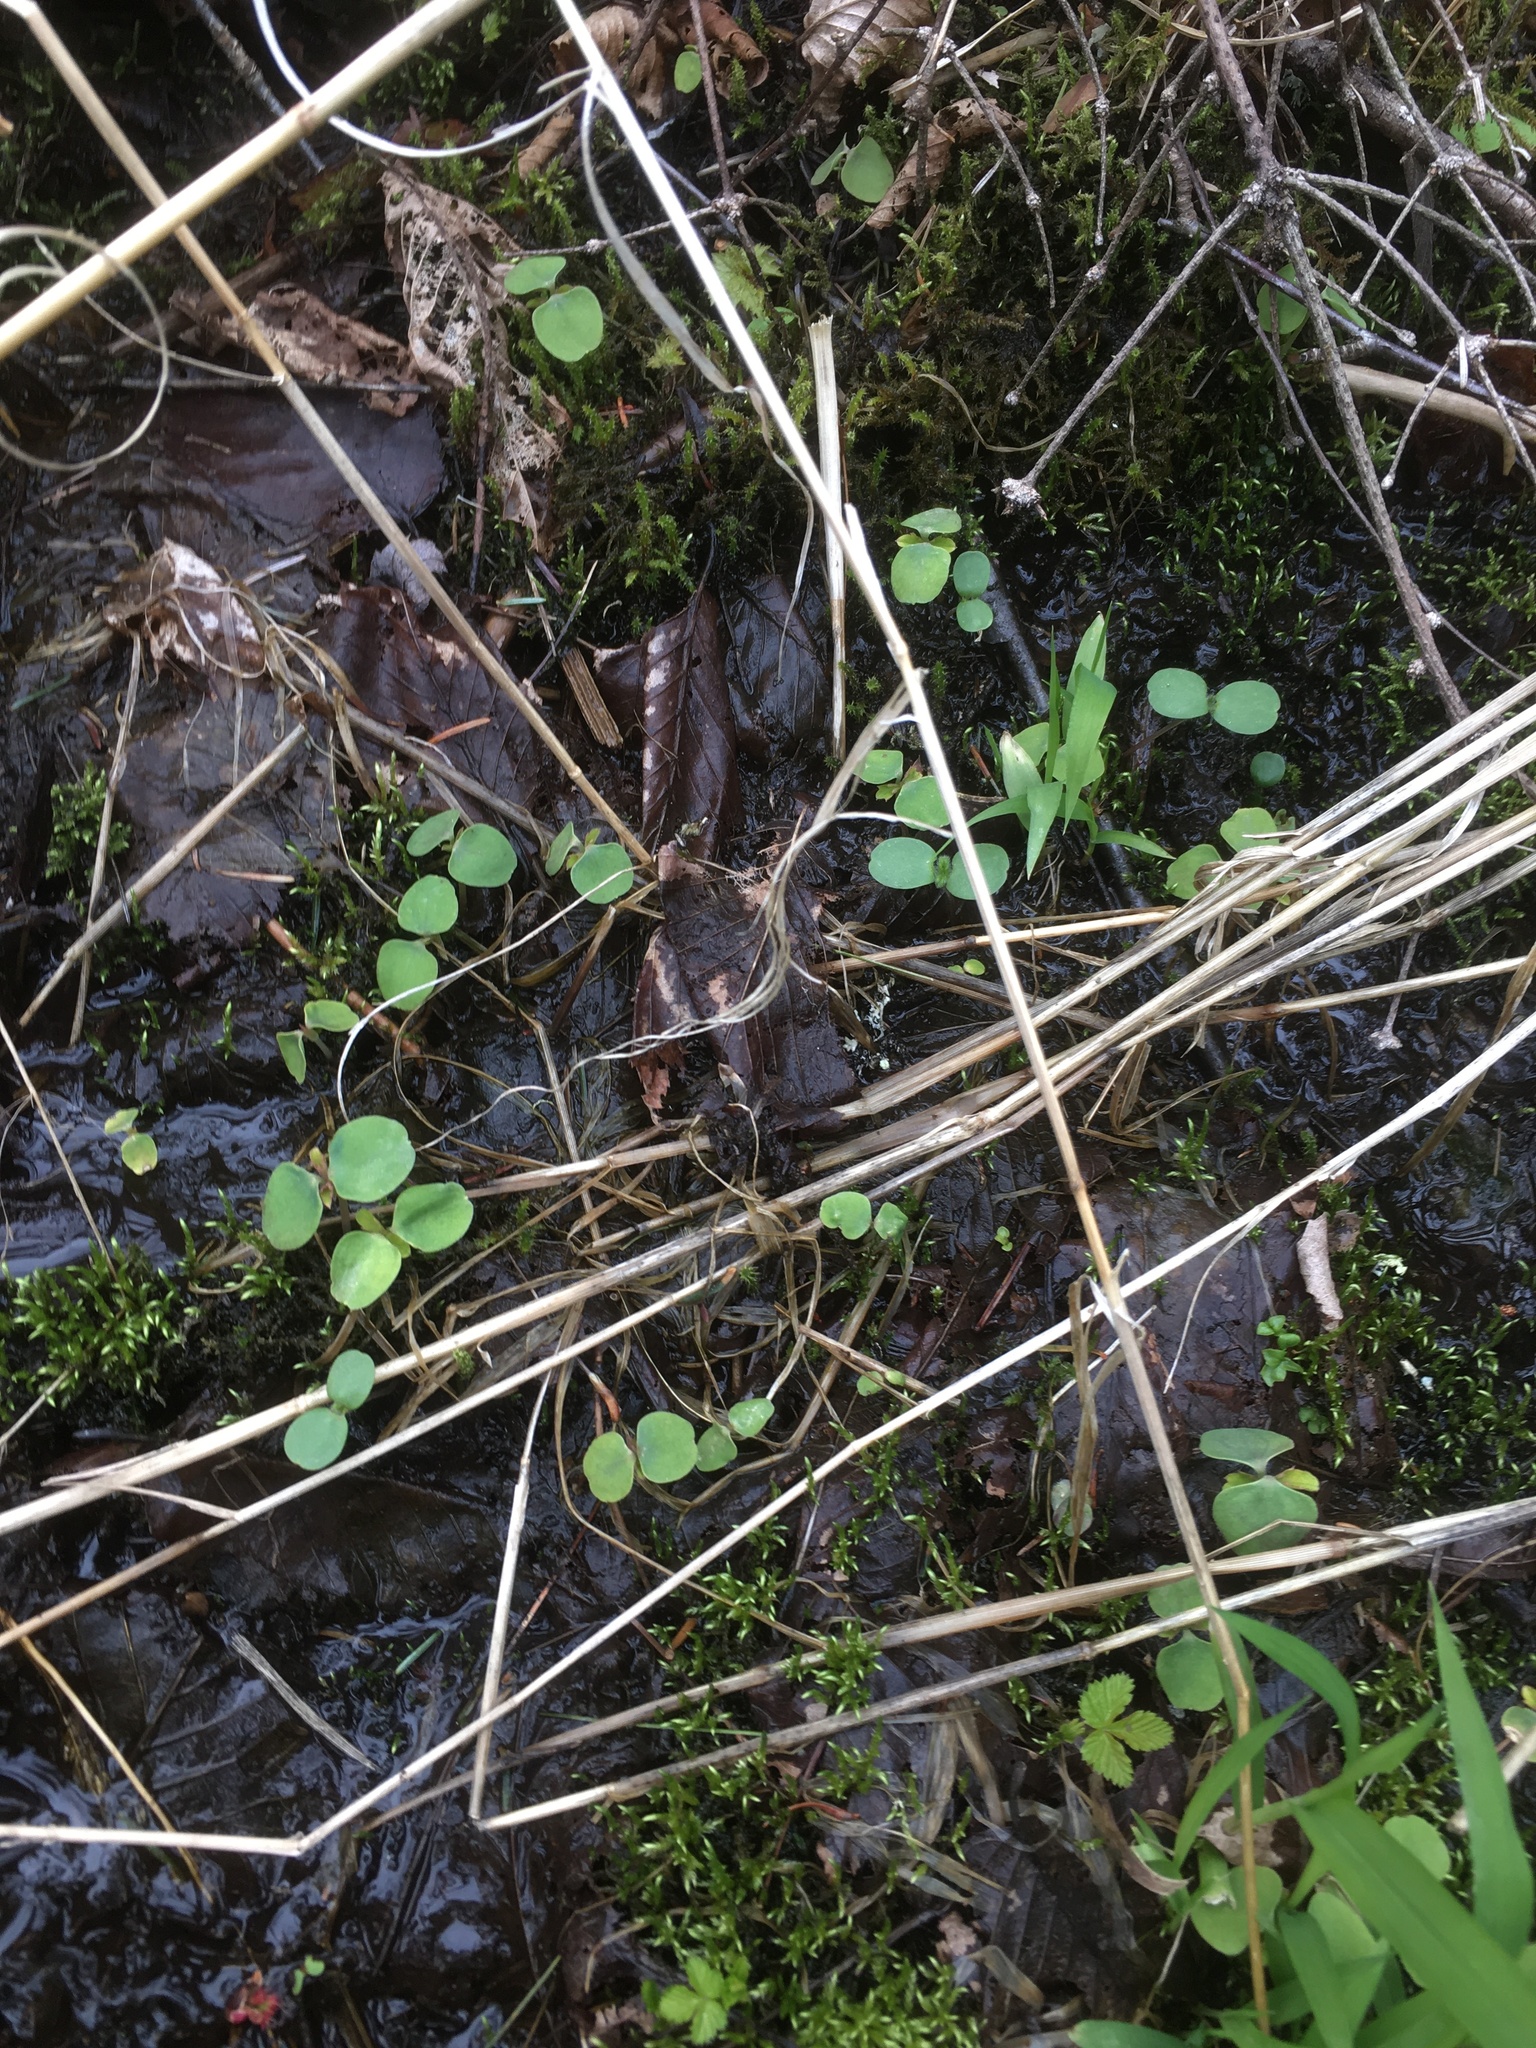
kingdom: Plantae
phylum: Tracheophyta
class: Magnoliopsida
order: Ericales
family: Balsaminaceae
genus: Impatiens
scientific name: Impatiens capensis
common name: Orange balsam
